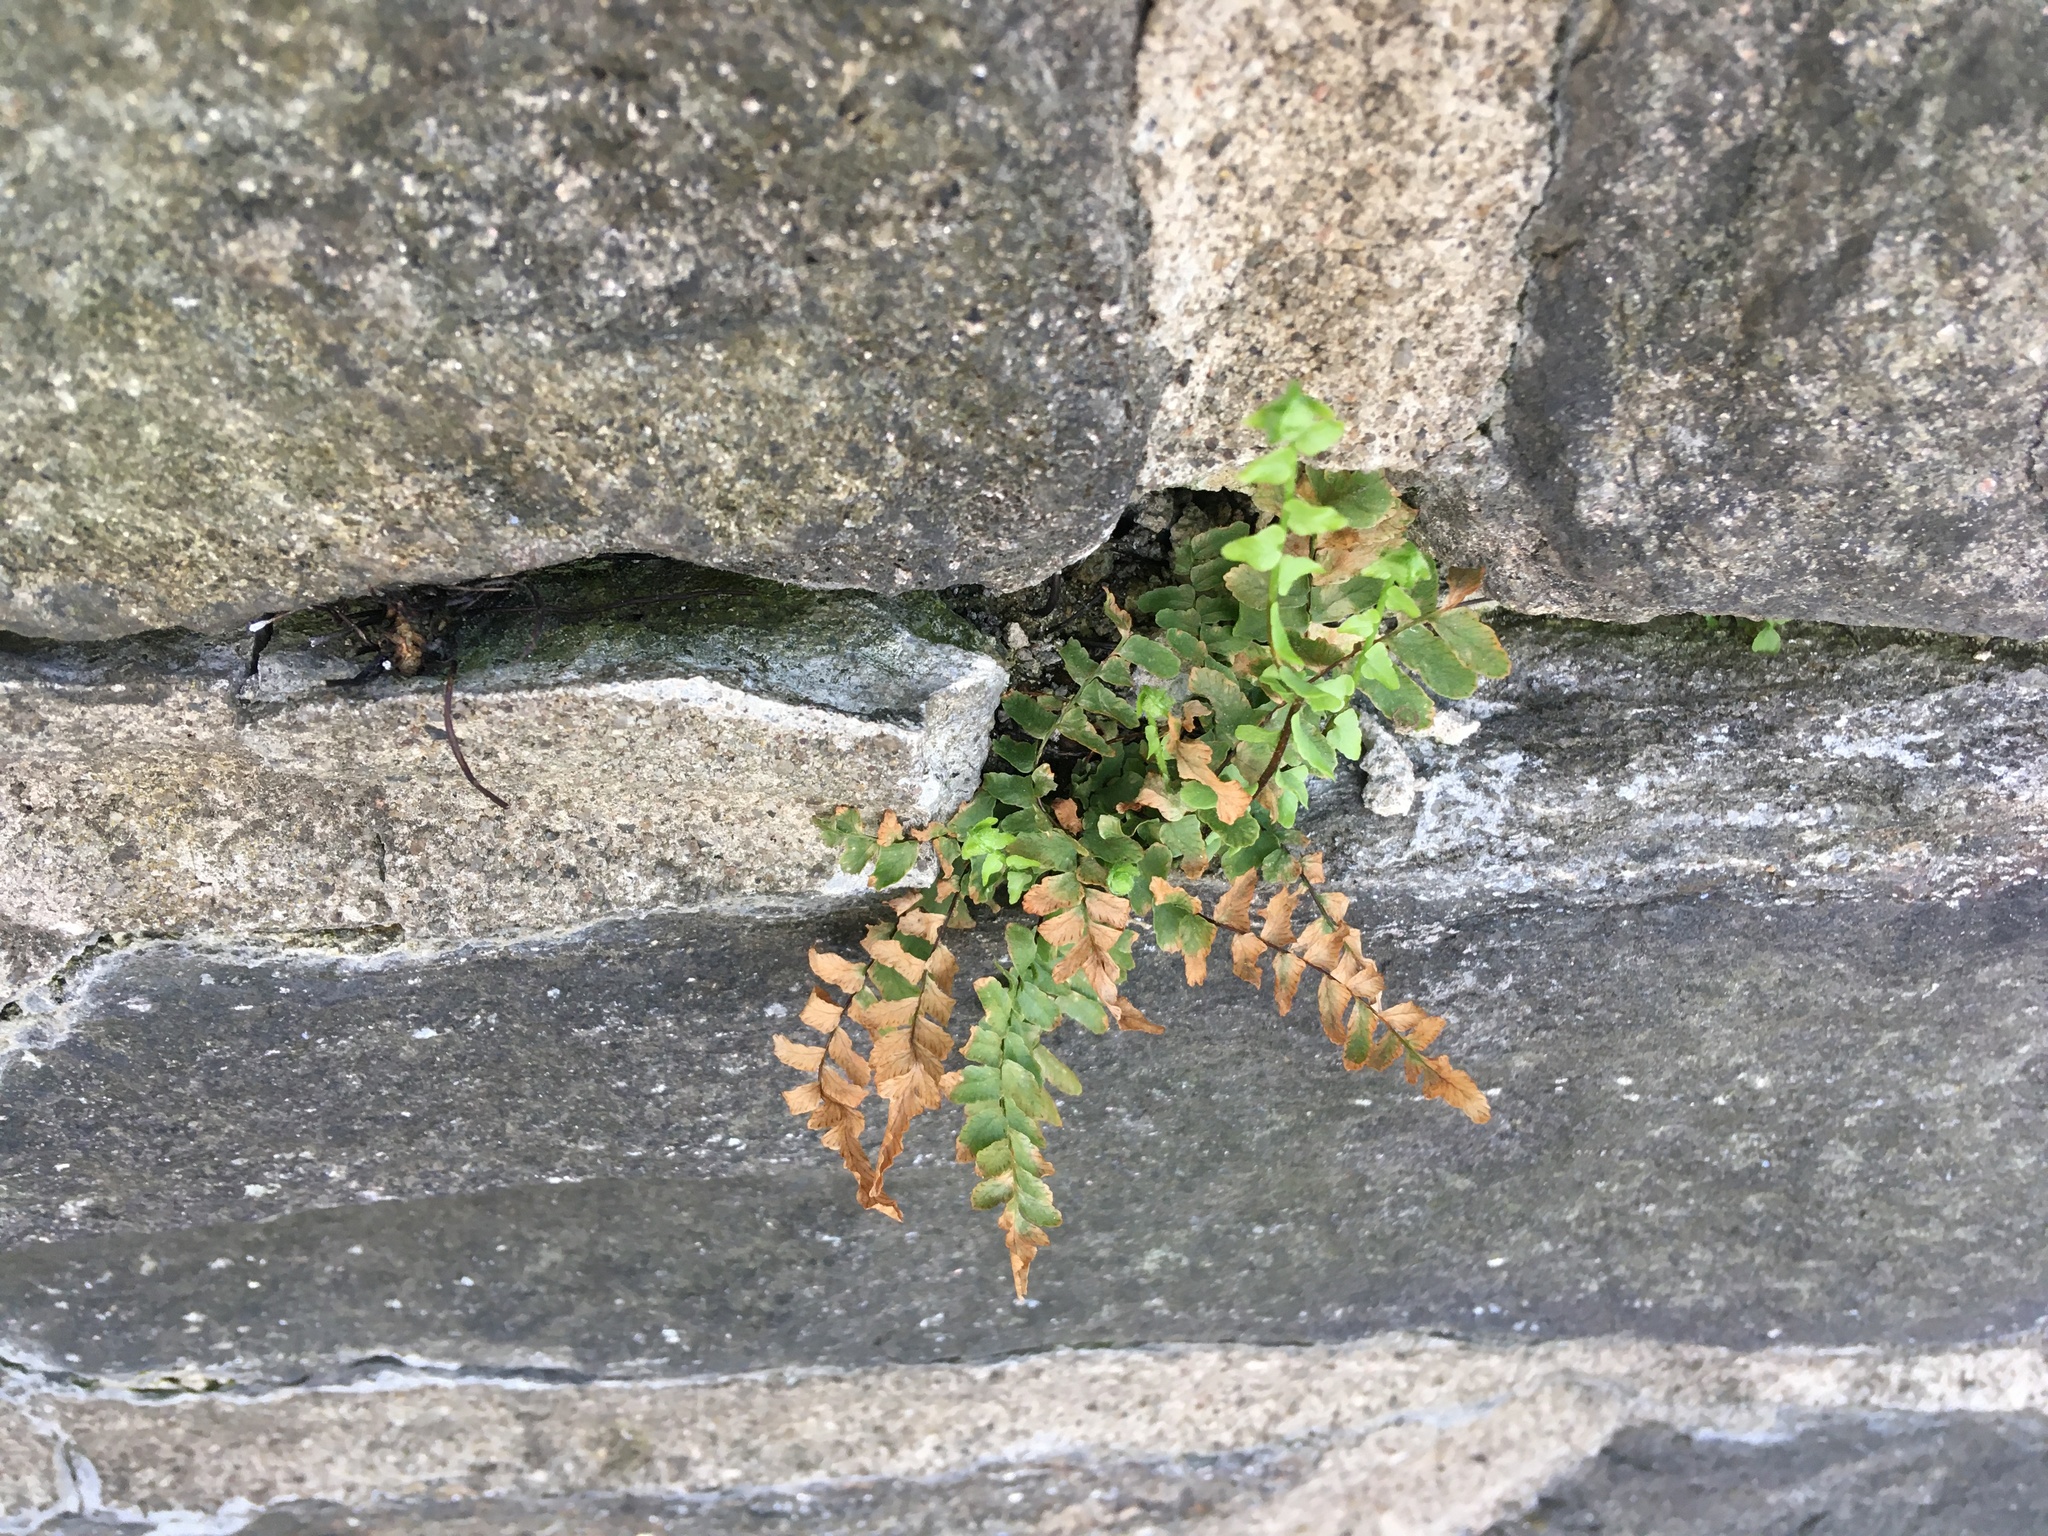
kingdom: Plantae
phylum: Tracheophyta
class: Polypodiopsida
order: Polypodiales
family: Aspleniaceae
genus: Asplenium
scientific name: Asplenium platyneuron
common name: Ebony spleenwort
